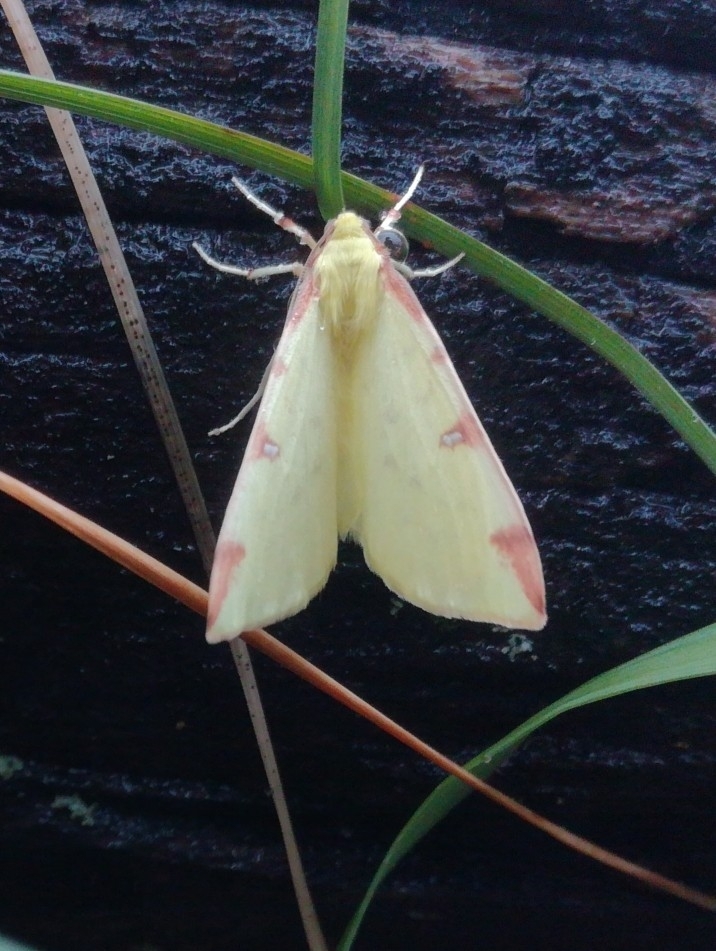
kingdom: Animalia
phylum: Arthropoda
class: Insecta
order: Lepidoptera
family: Geometridae
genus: Opisthograptis
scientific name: Opisthograptis luteolata
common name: Brimstone moth
